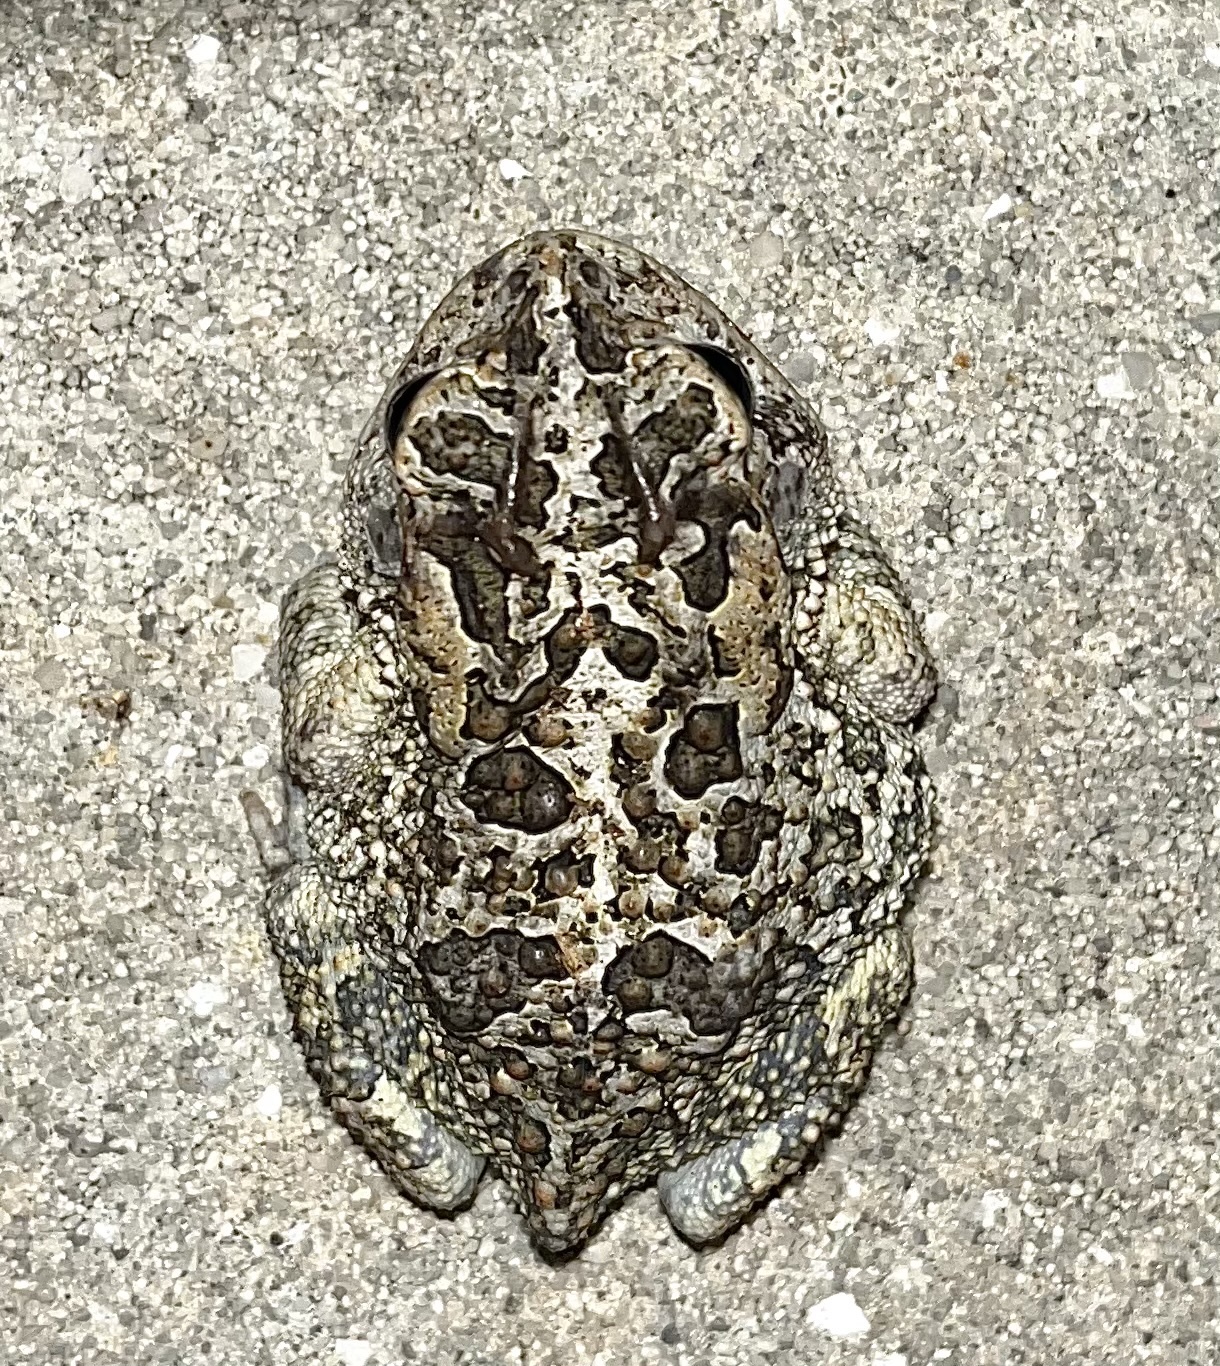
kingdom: Animalia
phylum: Chordata
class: Amphibia
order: Anura
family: Bufonidae
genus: Anaxyrus
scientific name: Anaxyrus terrestris
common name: Southern toad
